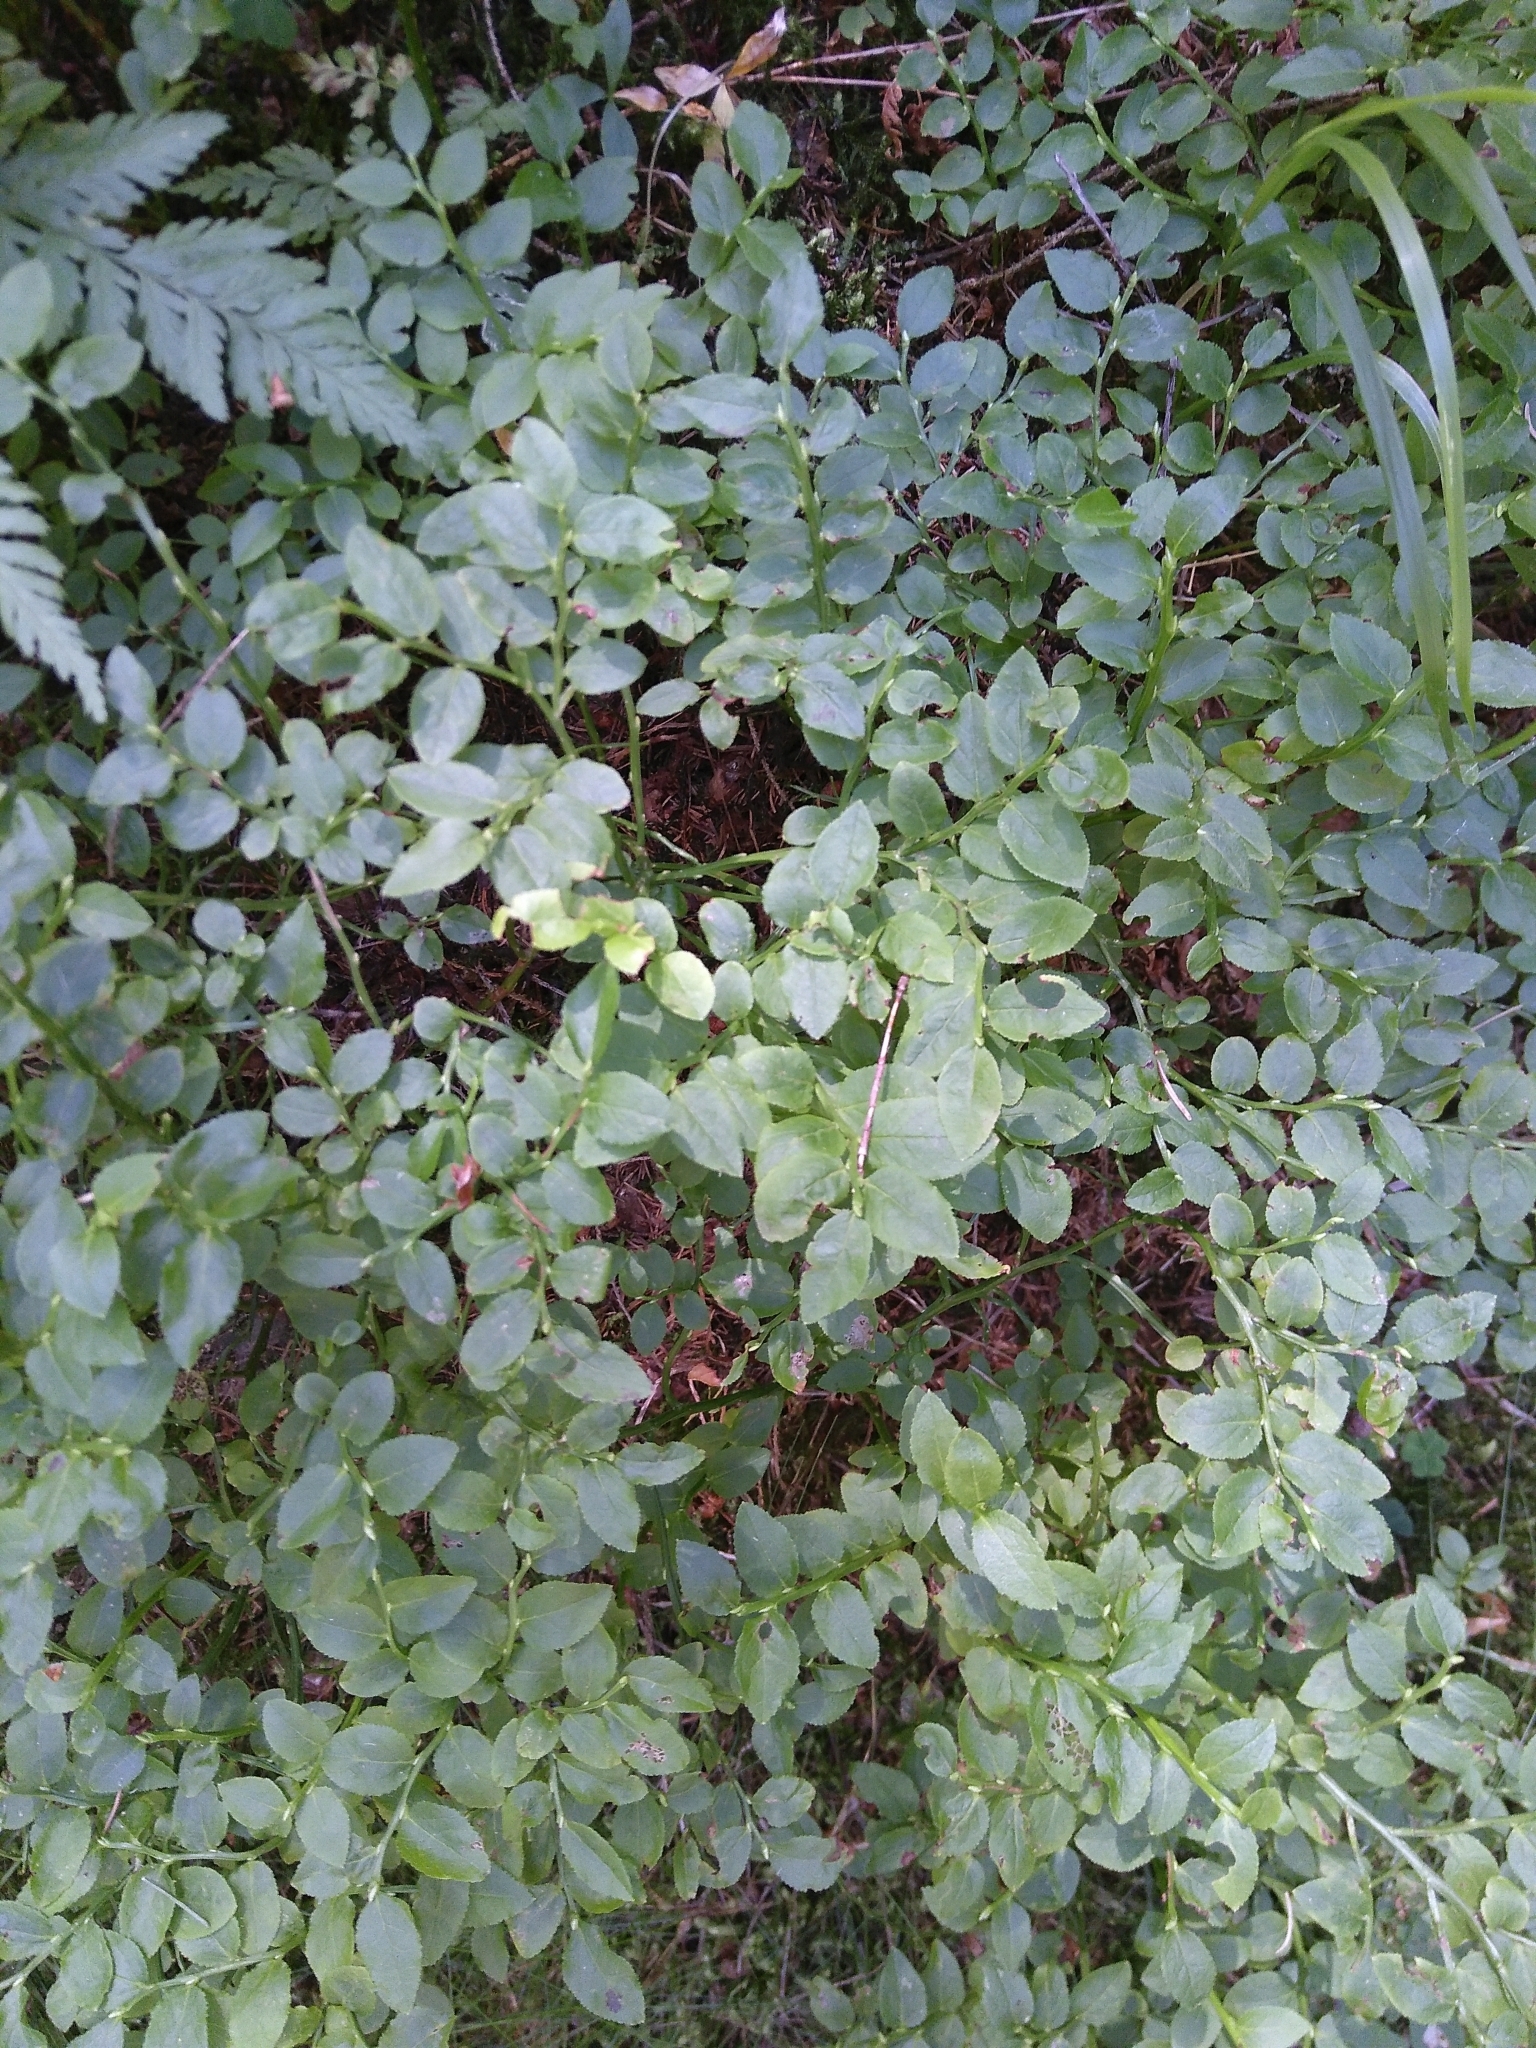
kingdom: Plantae
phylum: Tracheophyta
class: Magnoliopsida
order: Ericales
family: Ericaceae
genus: Vaccinium
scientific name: Vaccinium myrtillus
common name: Bilberry
